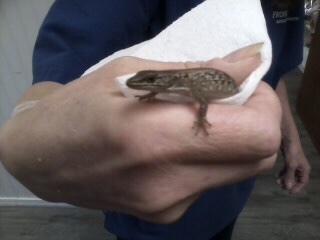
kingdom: Animalia
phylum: Chordata
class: Squamata
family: Anguidae
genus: Elgaria
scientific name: Elgaria coerulea
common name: Northern alligator lizard
